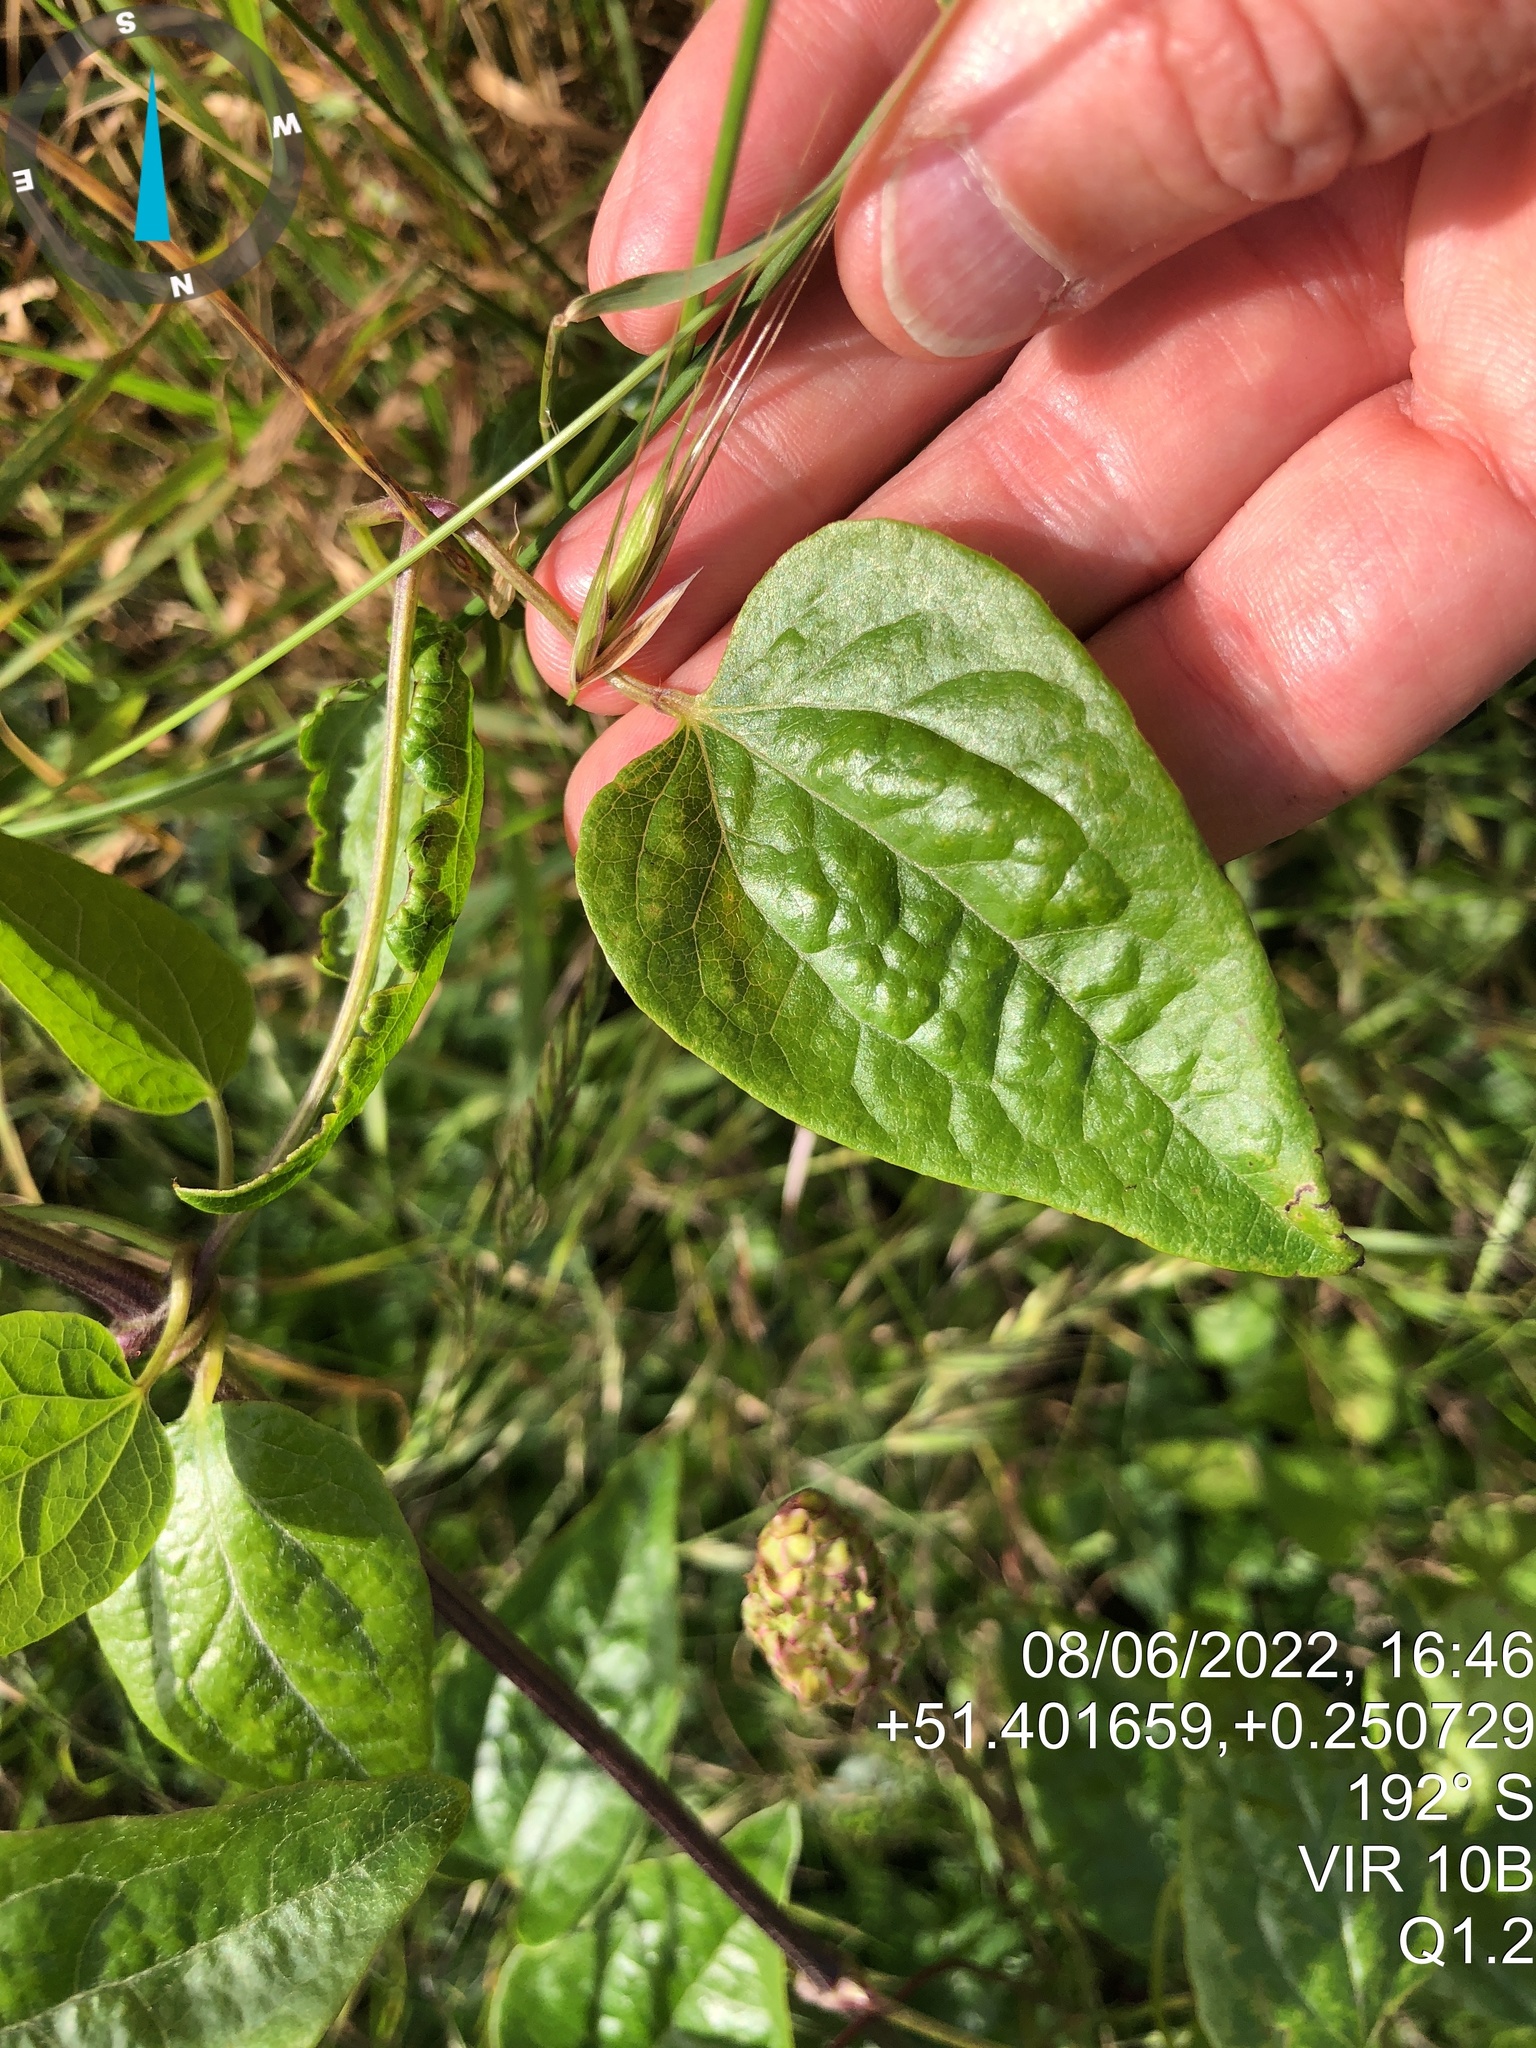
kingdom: Plantae
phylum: Tracheophyta
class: Magnoliopsida
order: Ranunculales
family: Ranunculaceae
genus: Clematis
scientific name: Clematis vitalba
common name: Evergreen clematis
